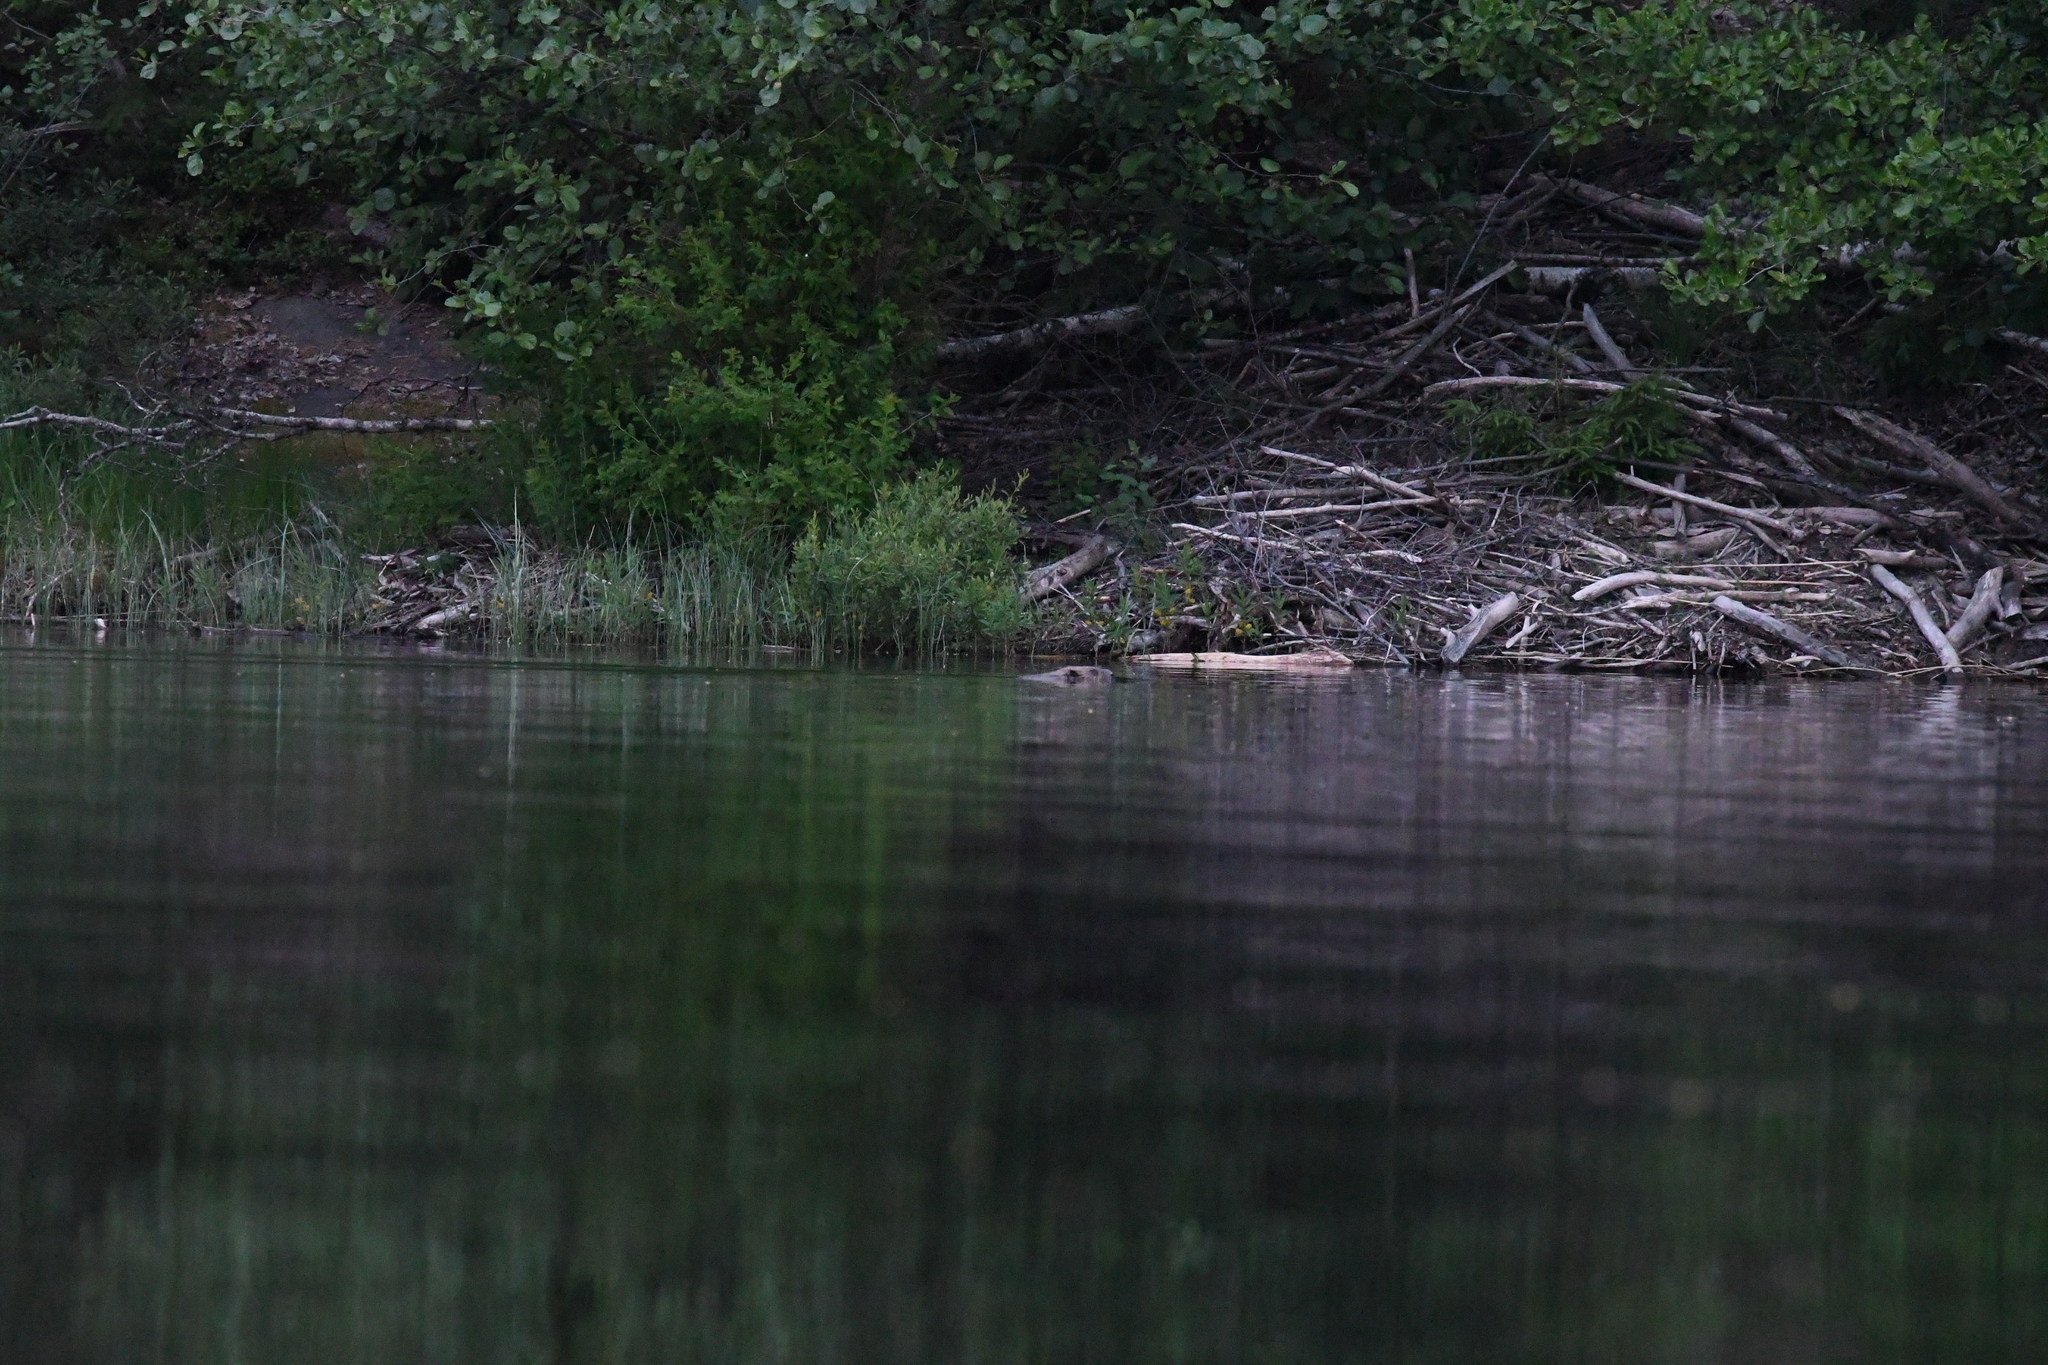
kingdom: Animalia
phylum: Chordata
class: Mammalia
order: Rodentia
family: Castoridae
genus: Castor
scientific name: Castor fiber
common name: Eurasian beaver
